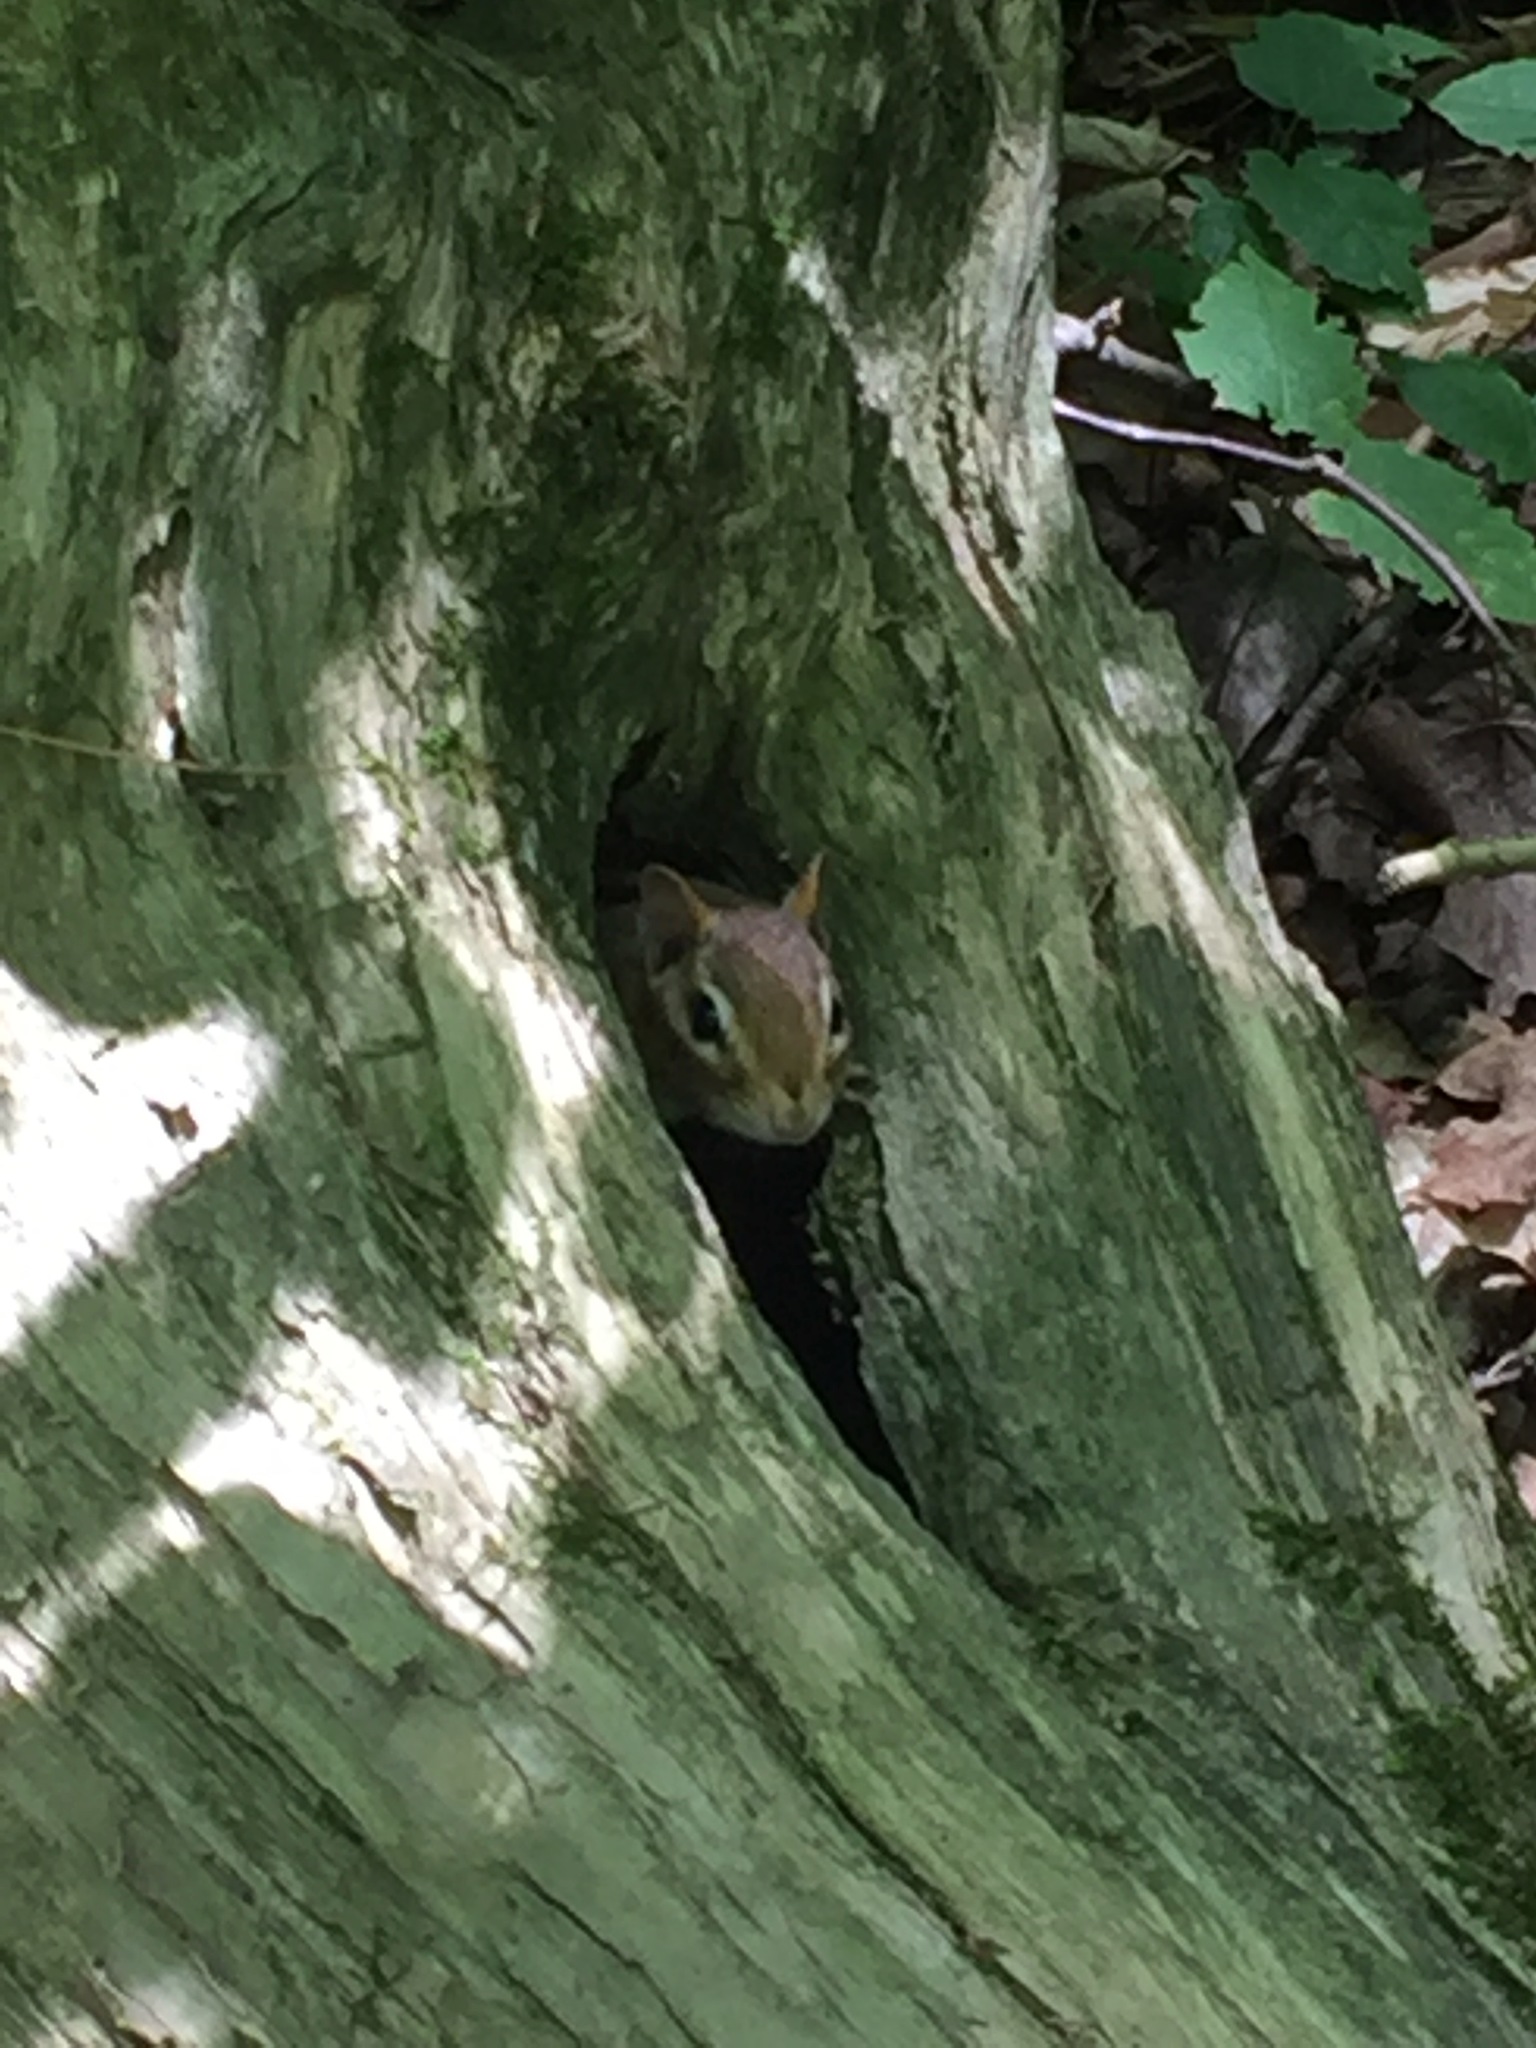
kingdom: Animalia
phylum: Chordata
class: Mammalia
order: Rodentia
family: Sciuridae
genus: Tamias
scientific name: Tamias striatus
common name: Eastern chipmunk
